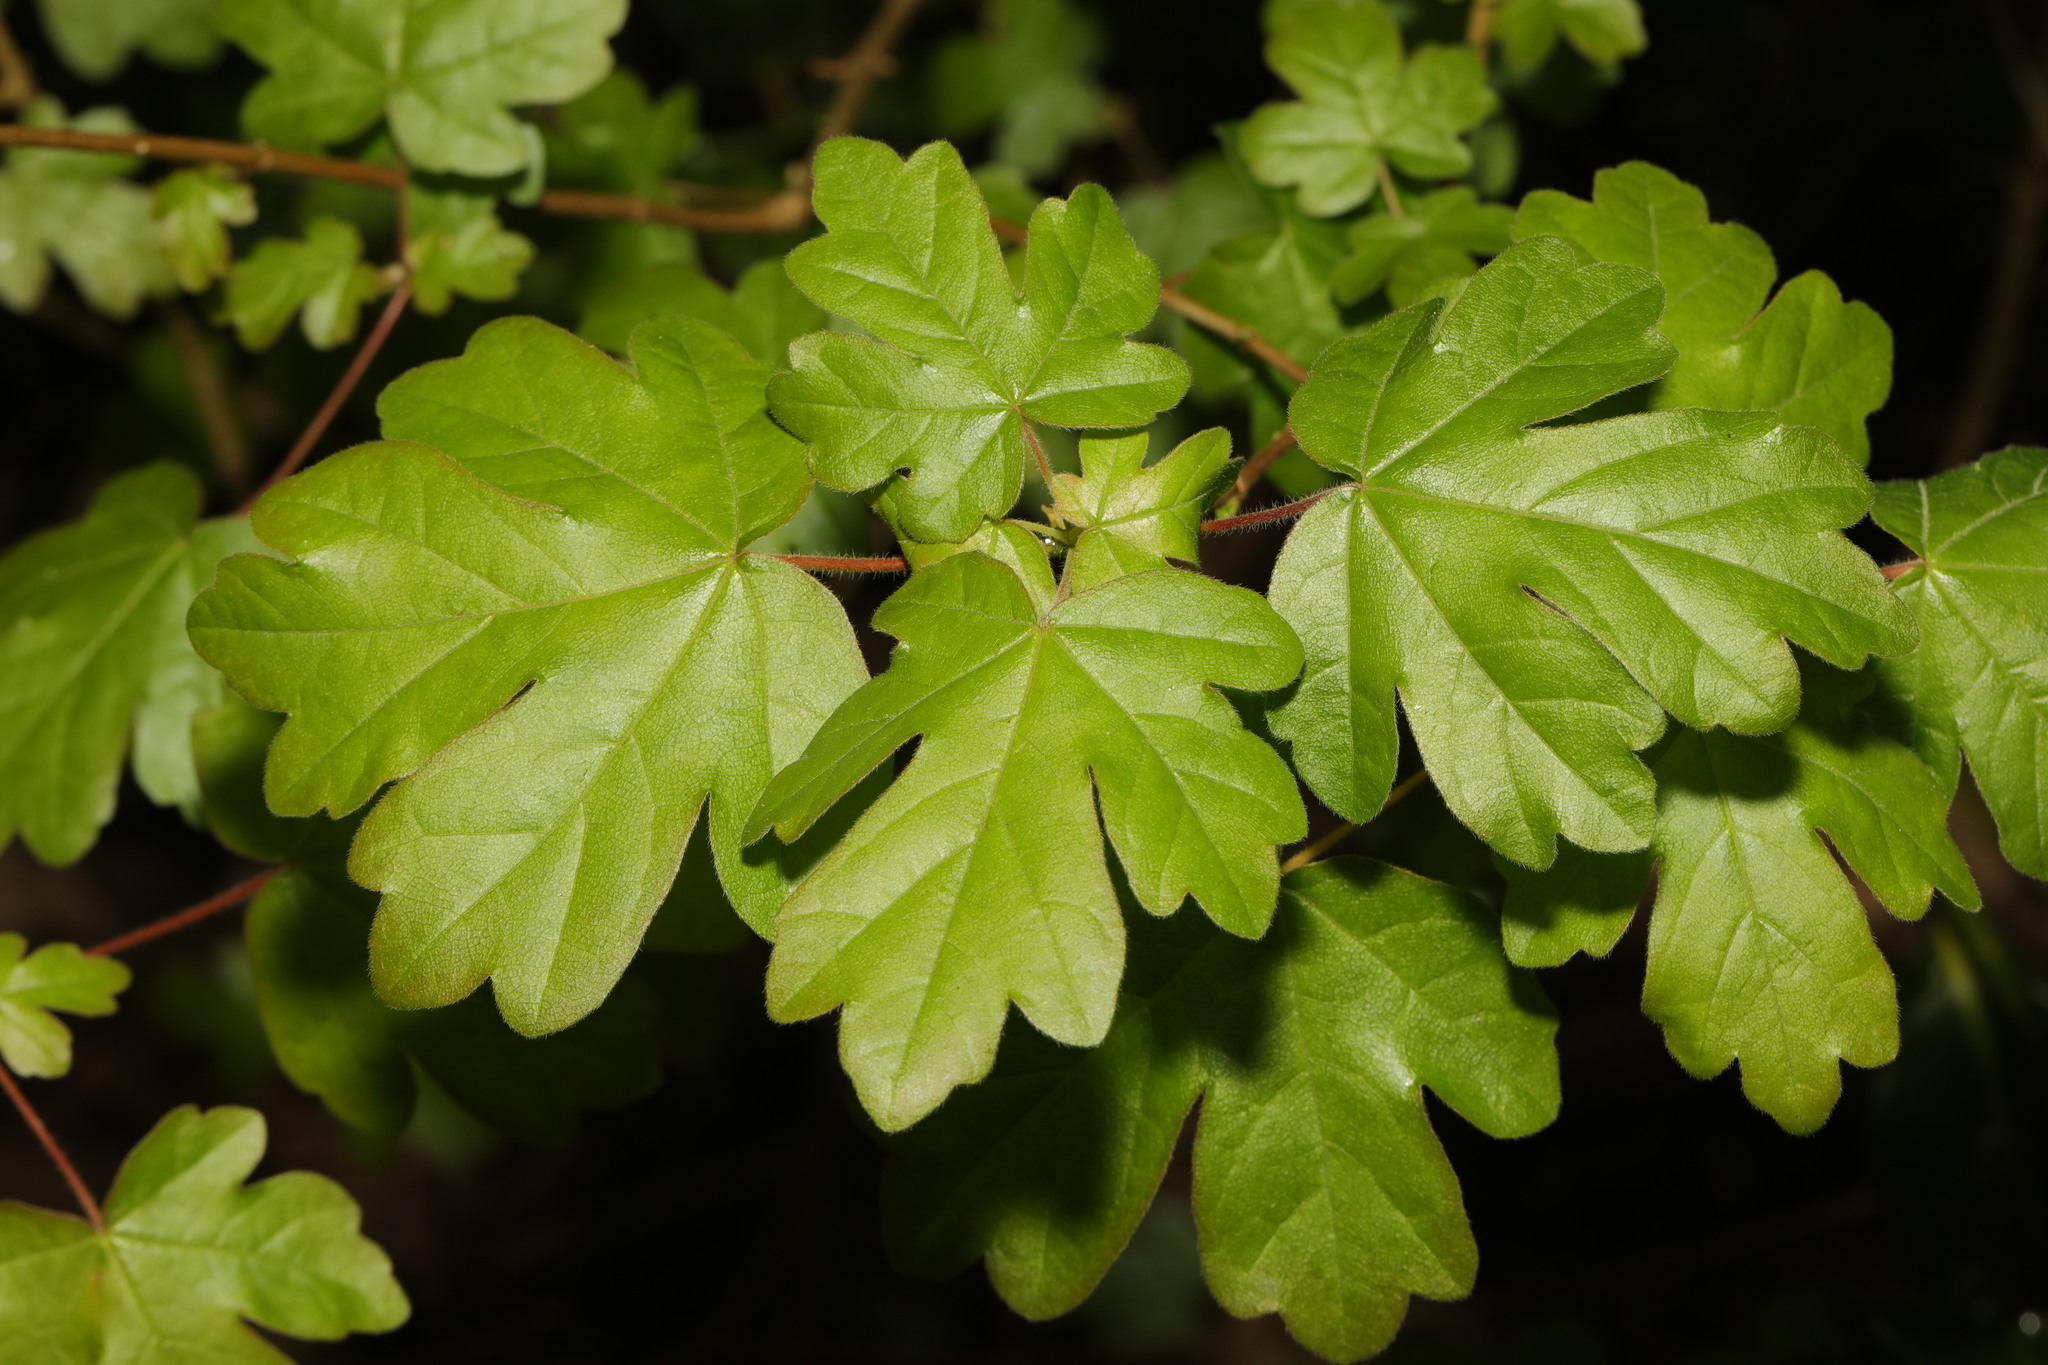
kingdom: Plantae
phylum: Tracheophyta
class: Magnoliopsida
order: Sapindales
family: Sapindaceae
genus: Acer
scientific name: Acer campestre
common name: Field maple
